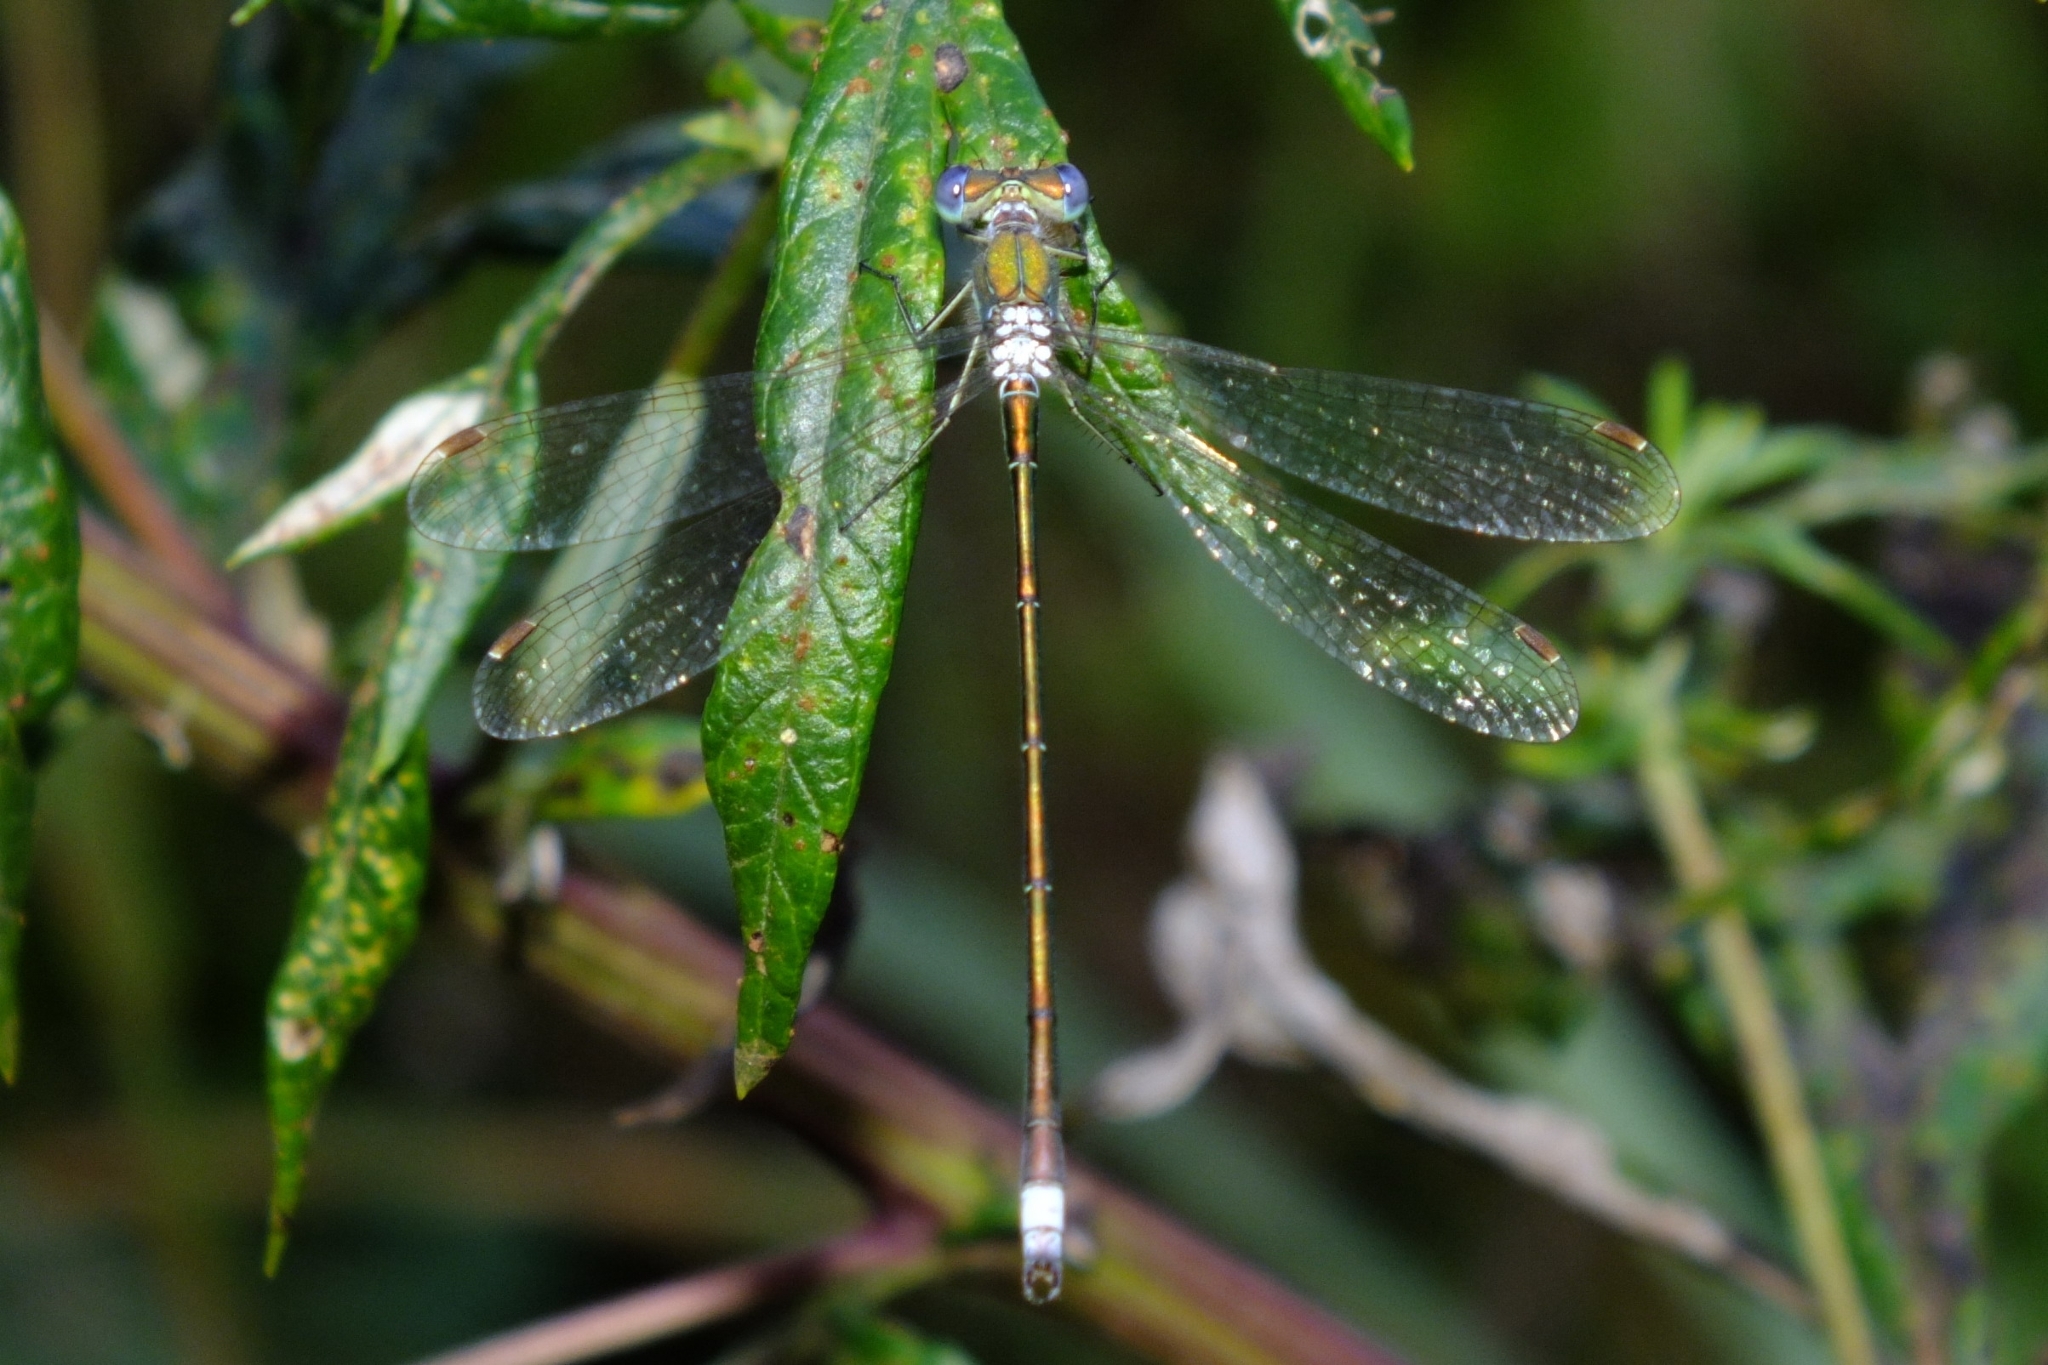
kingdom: Animalia
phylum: Arthropoda
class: Insecta
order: Odonata
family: Lestidae
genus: Lestes
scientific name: Lestes virens
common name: Small emerald spreadwing
